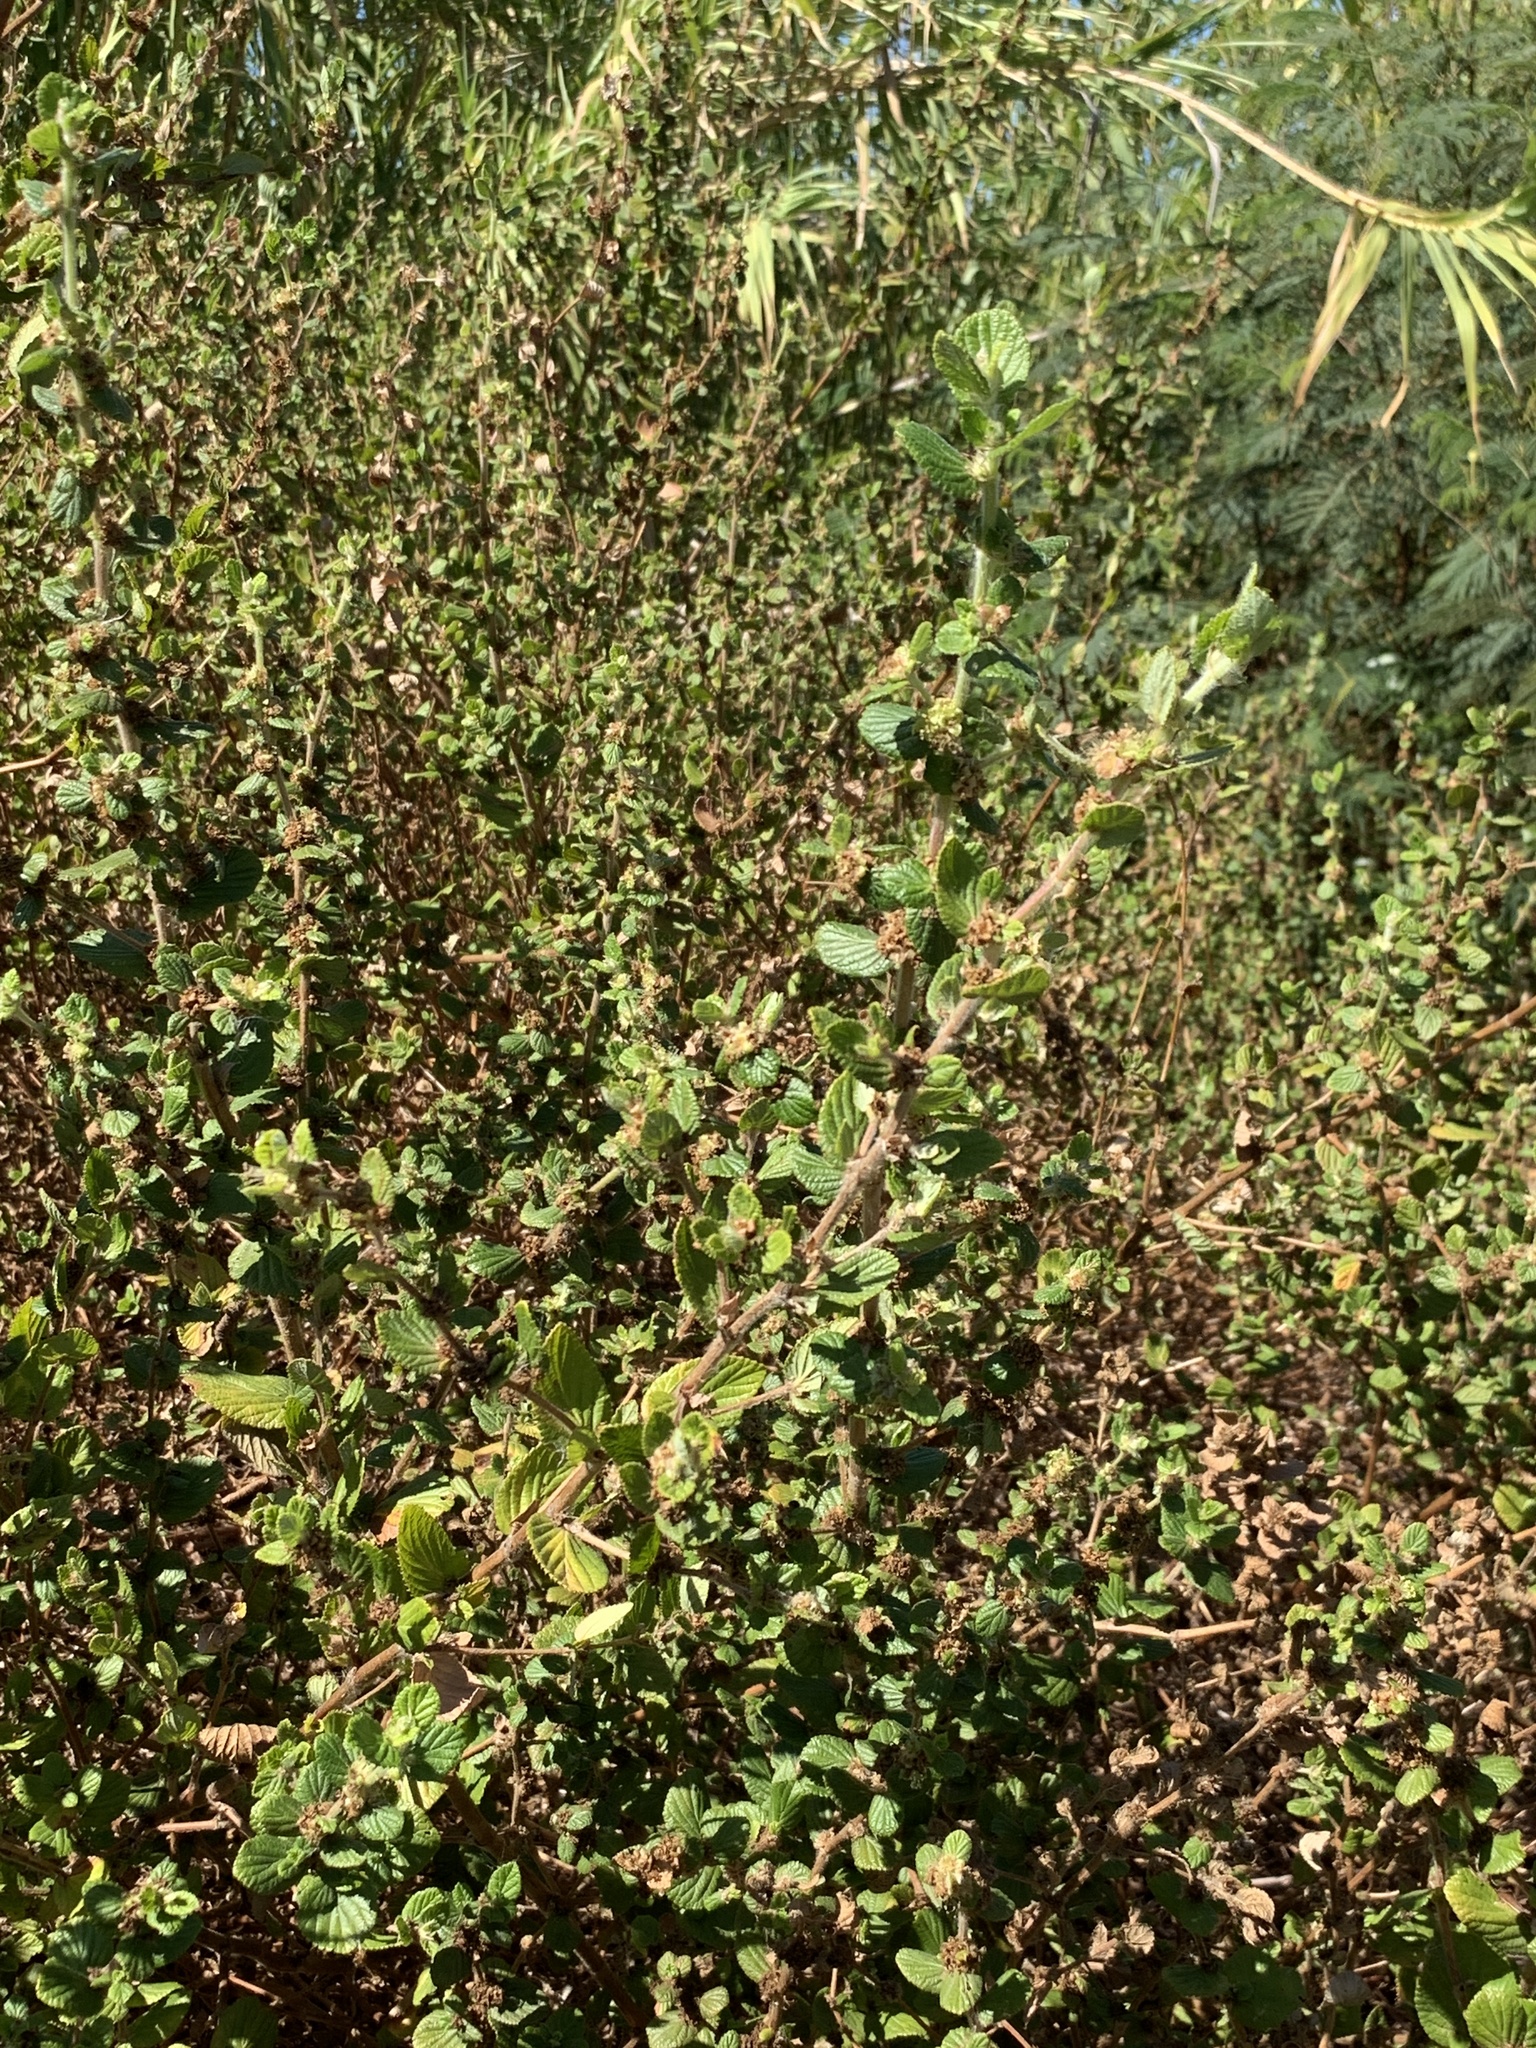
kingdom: Plantae
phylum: Tracheophyta
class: Magnoliopsida
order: Rosales
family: Rosaceae
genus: Cliffortia
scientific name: Cliffortia odorata
